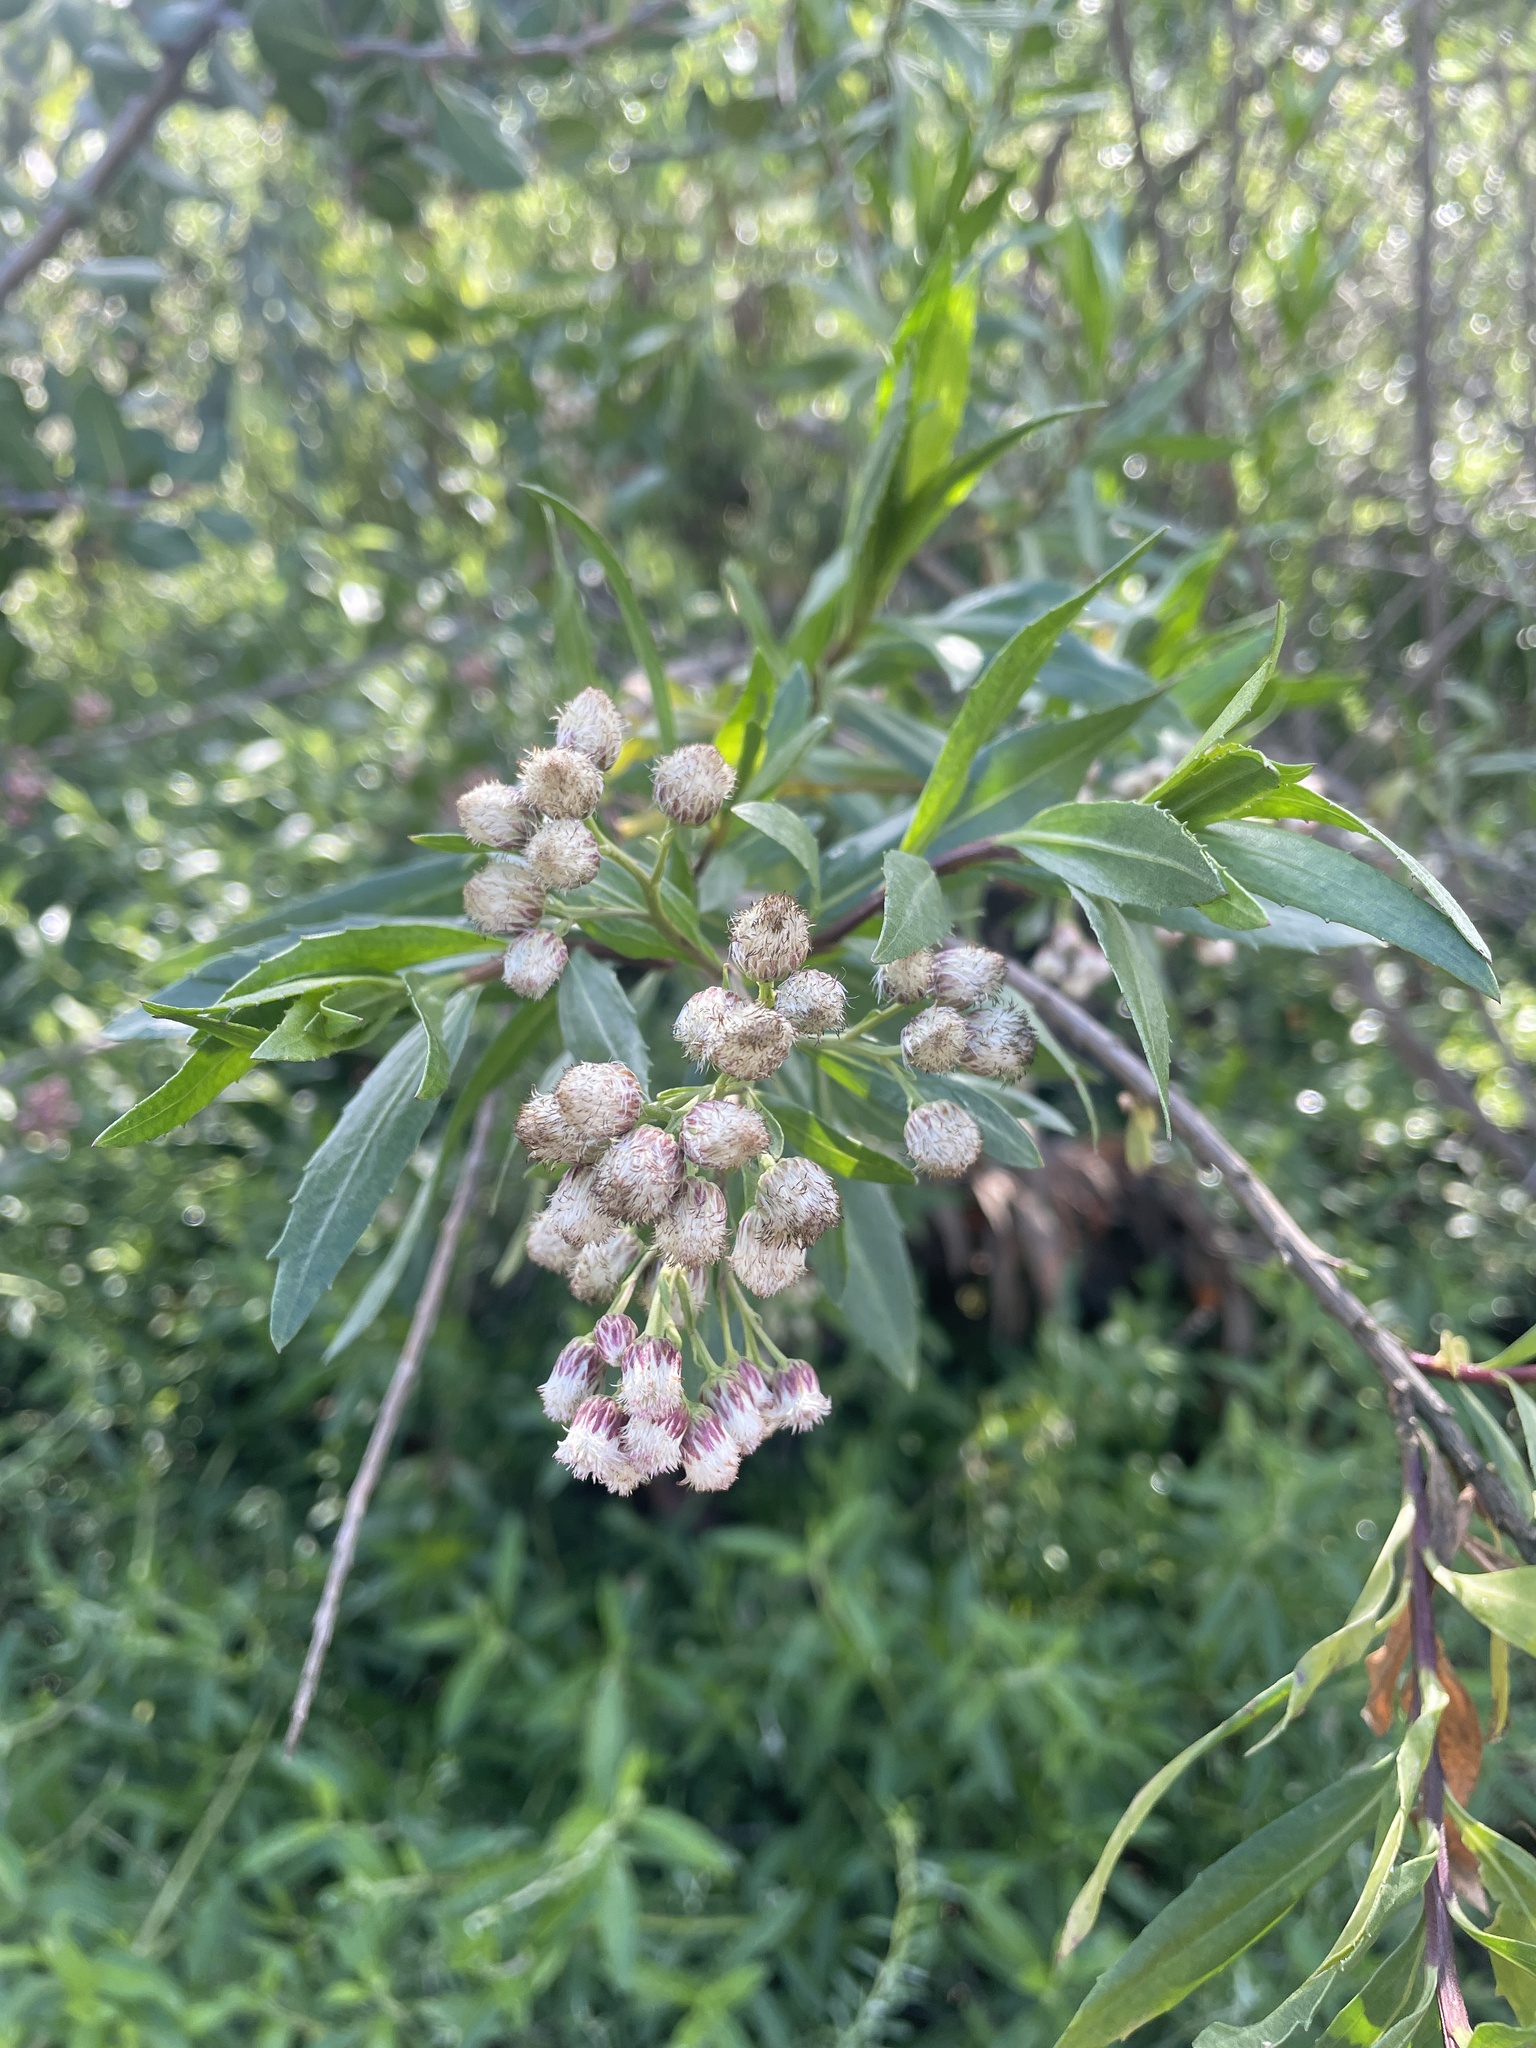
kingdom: Plantae
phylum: Tracheophyta
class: Magnoliopsida
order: Asterales
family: Asteraceae
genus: Baccharis
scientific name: Baccharis salicifolia
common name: Sticky baccharis
